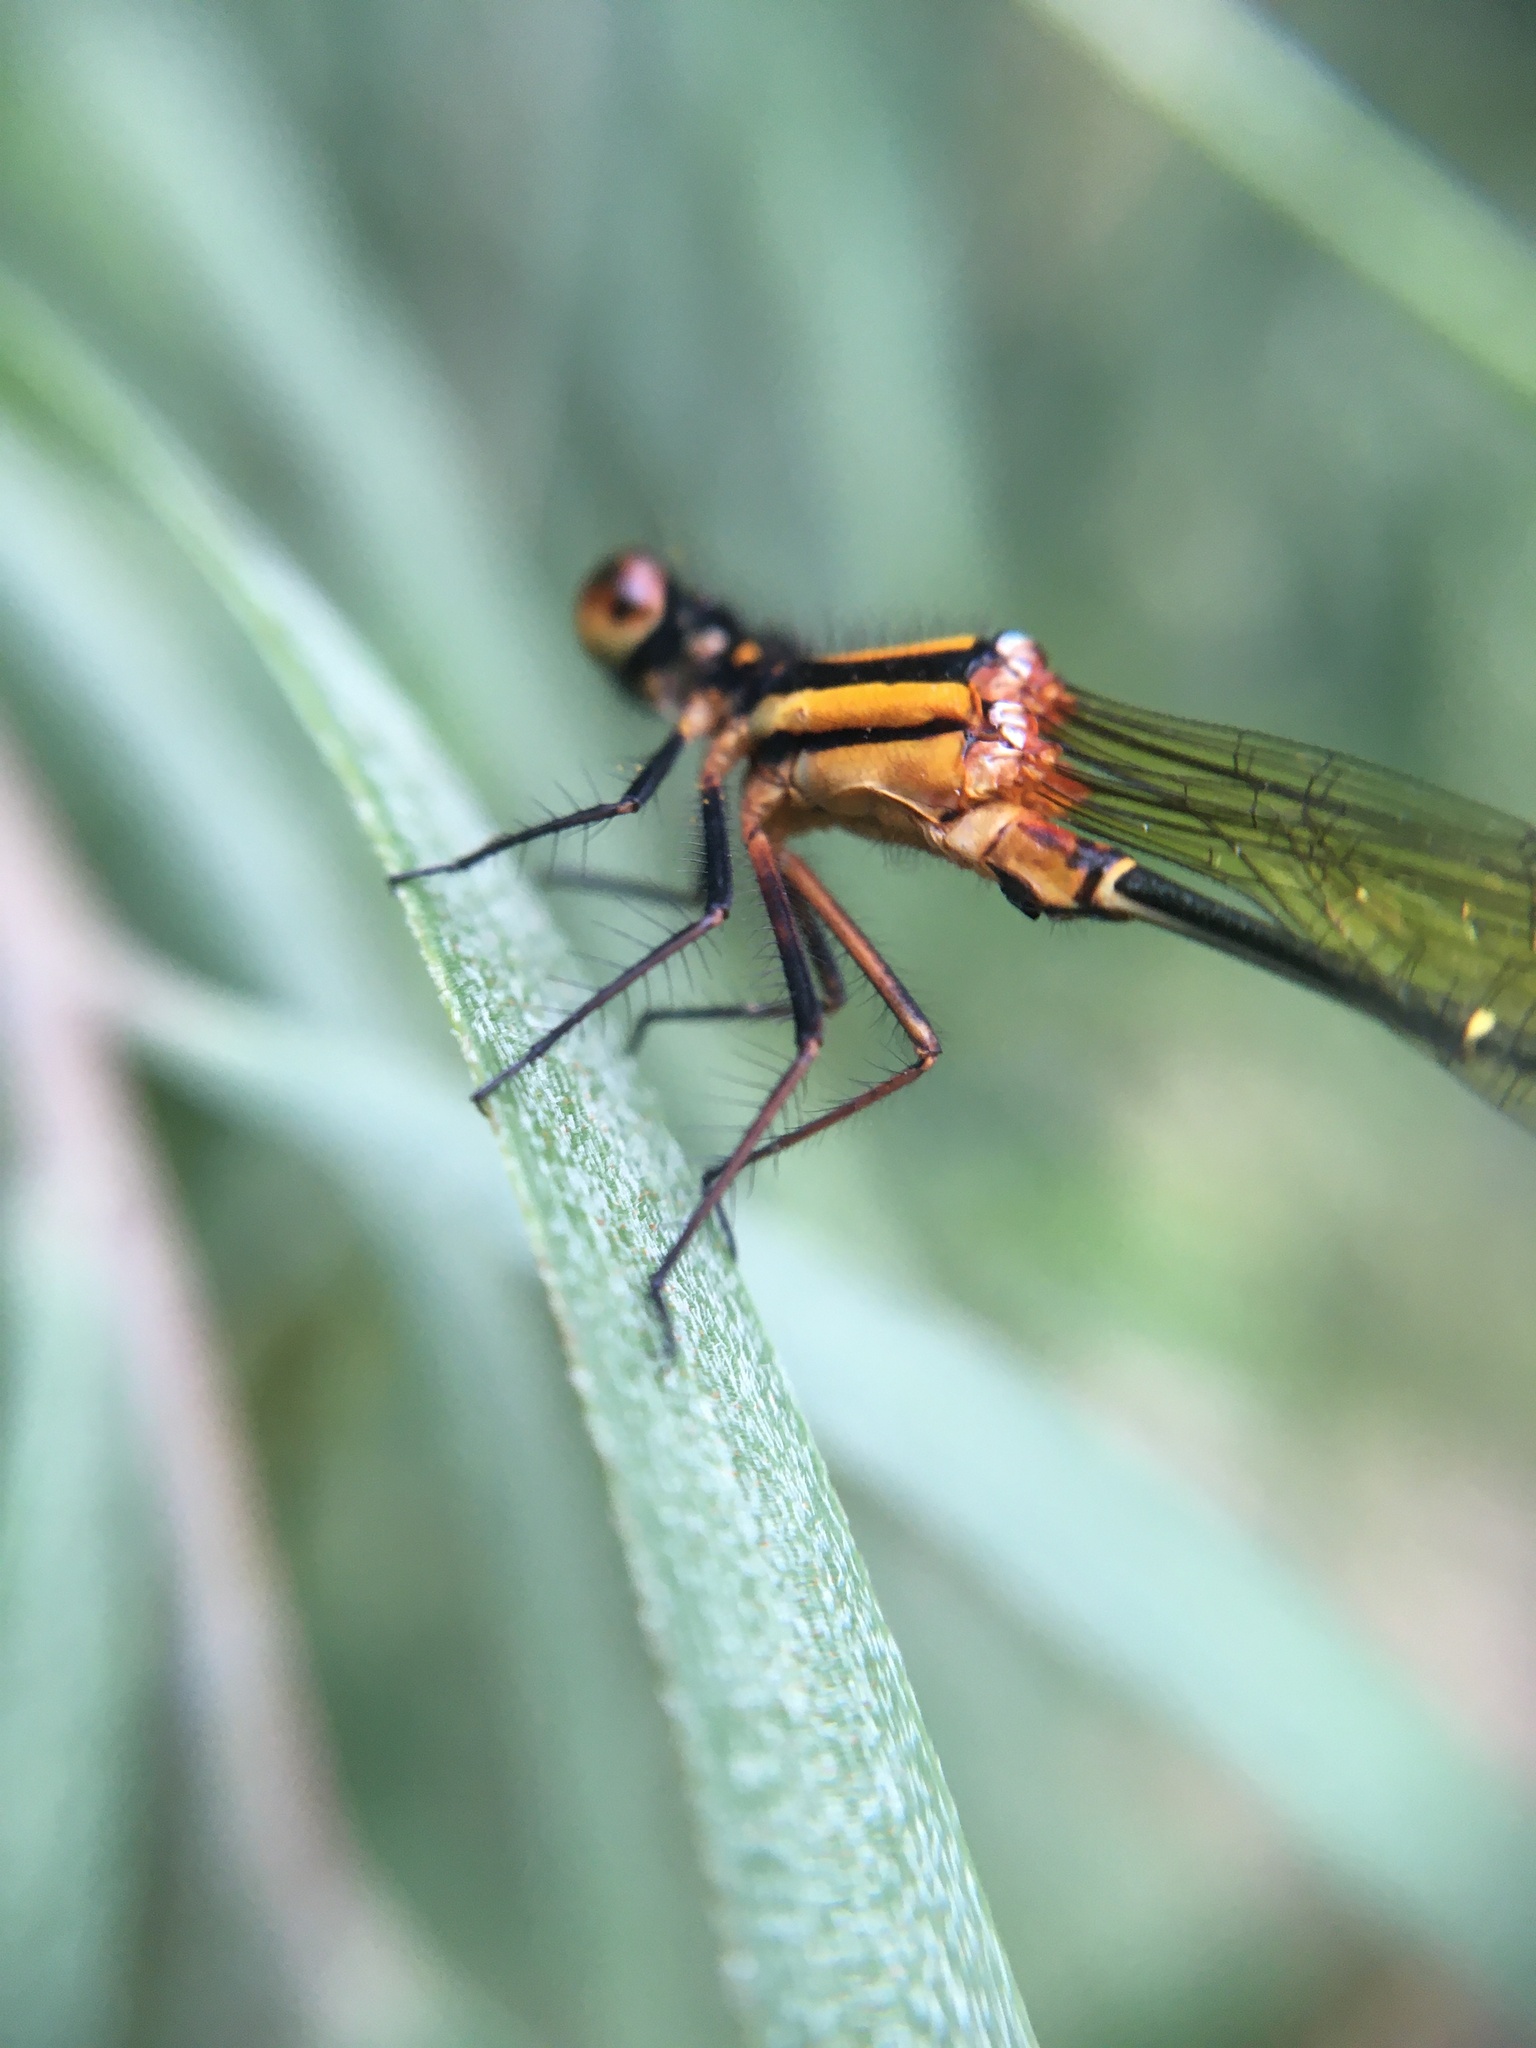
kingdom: Animalia
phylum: Arthropoda
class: Insecta
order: Odonata
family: Platycnemididae
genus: Nososticta
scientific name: Nososticta solida
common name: Orange threadtail
